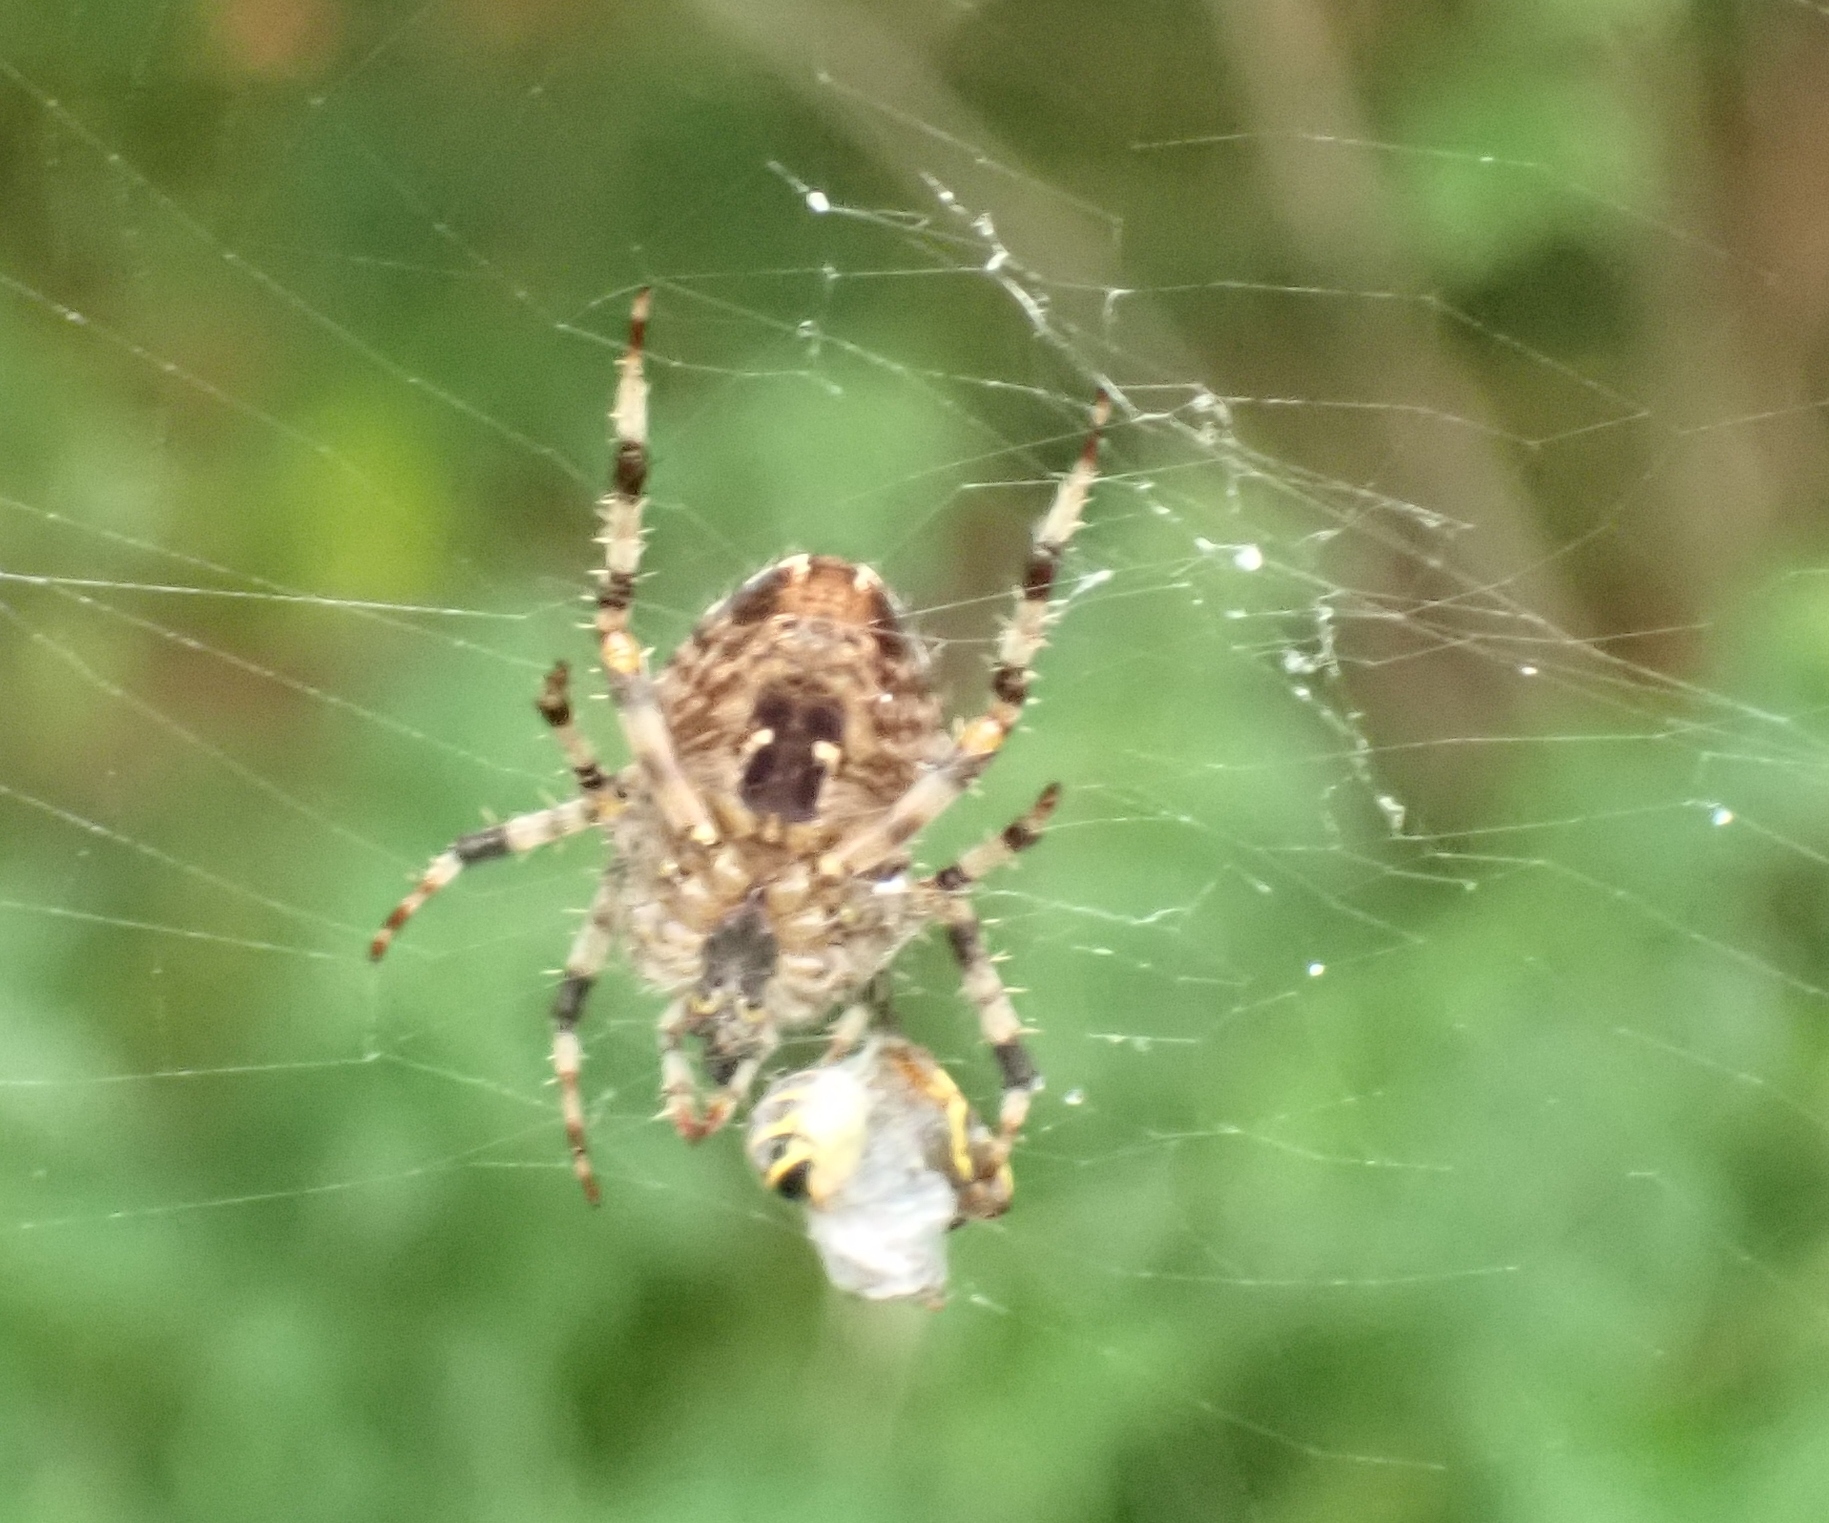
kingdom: Animalia
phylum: Arthropoda
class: Arachnida
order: Araneae
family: Araneidae
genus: Araneus
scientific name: Araneus diadematus
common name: Cross orbweaver
